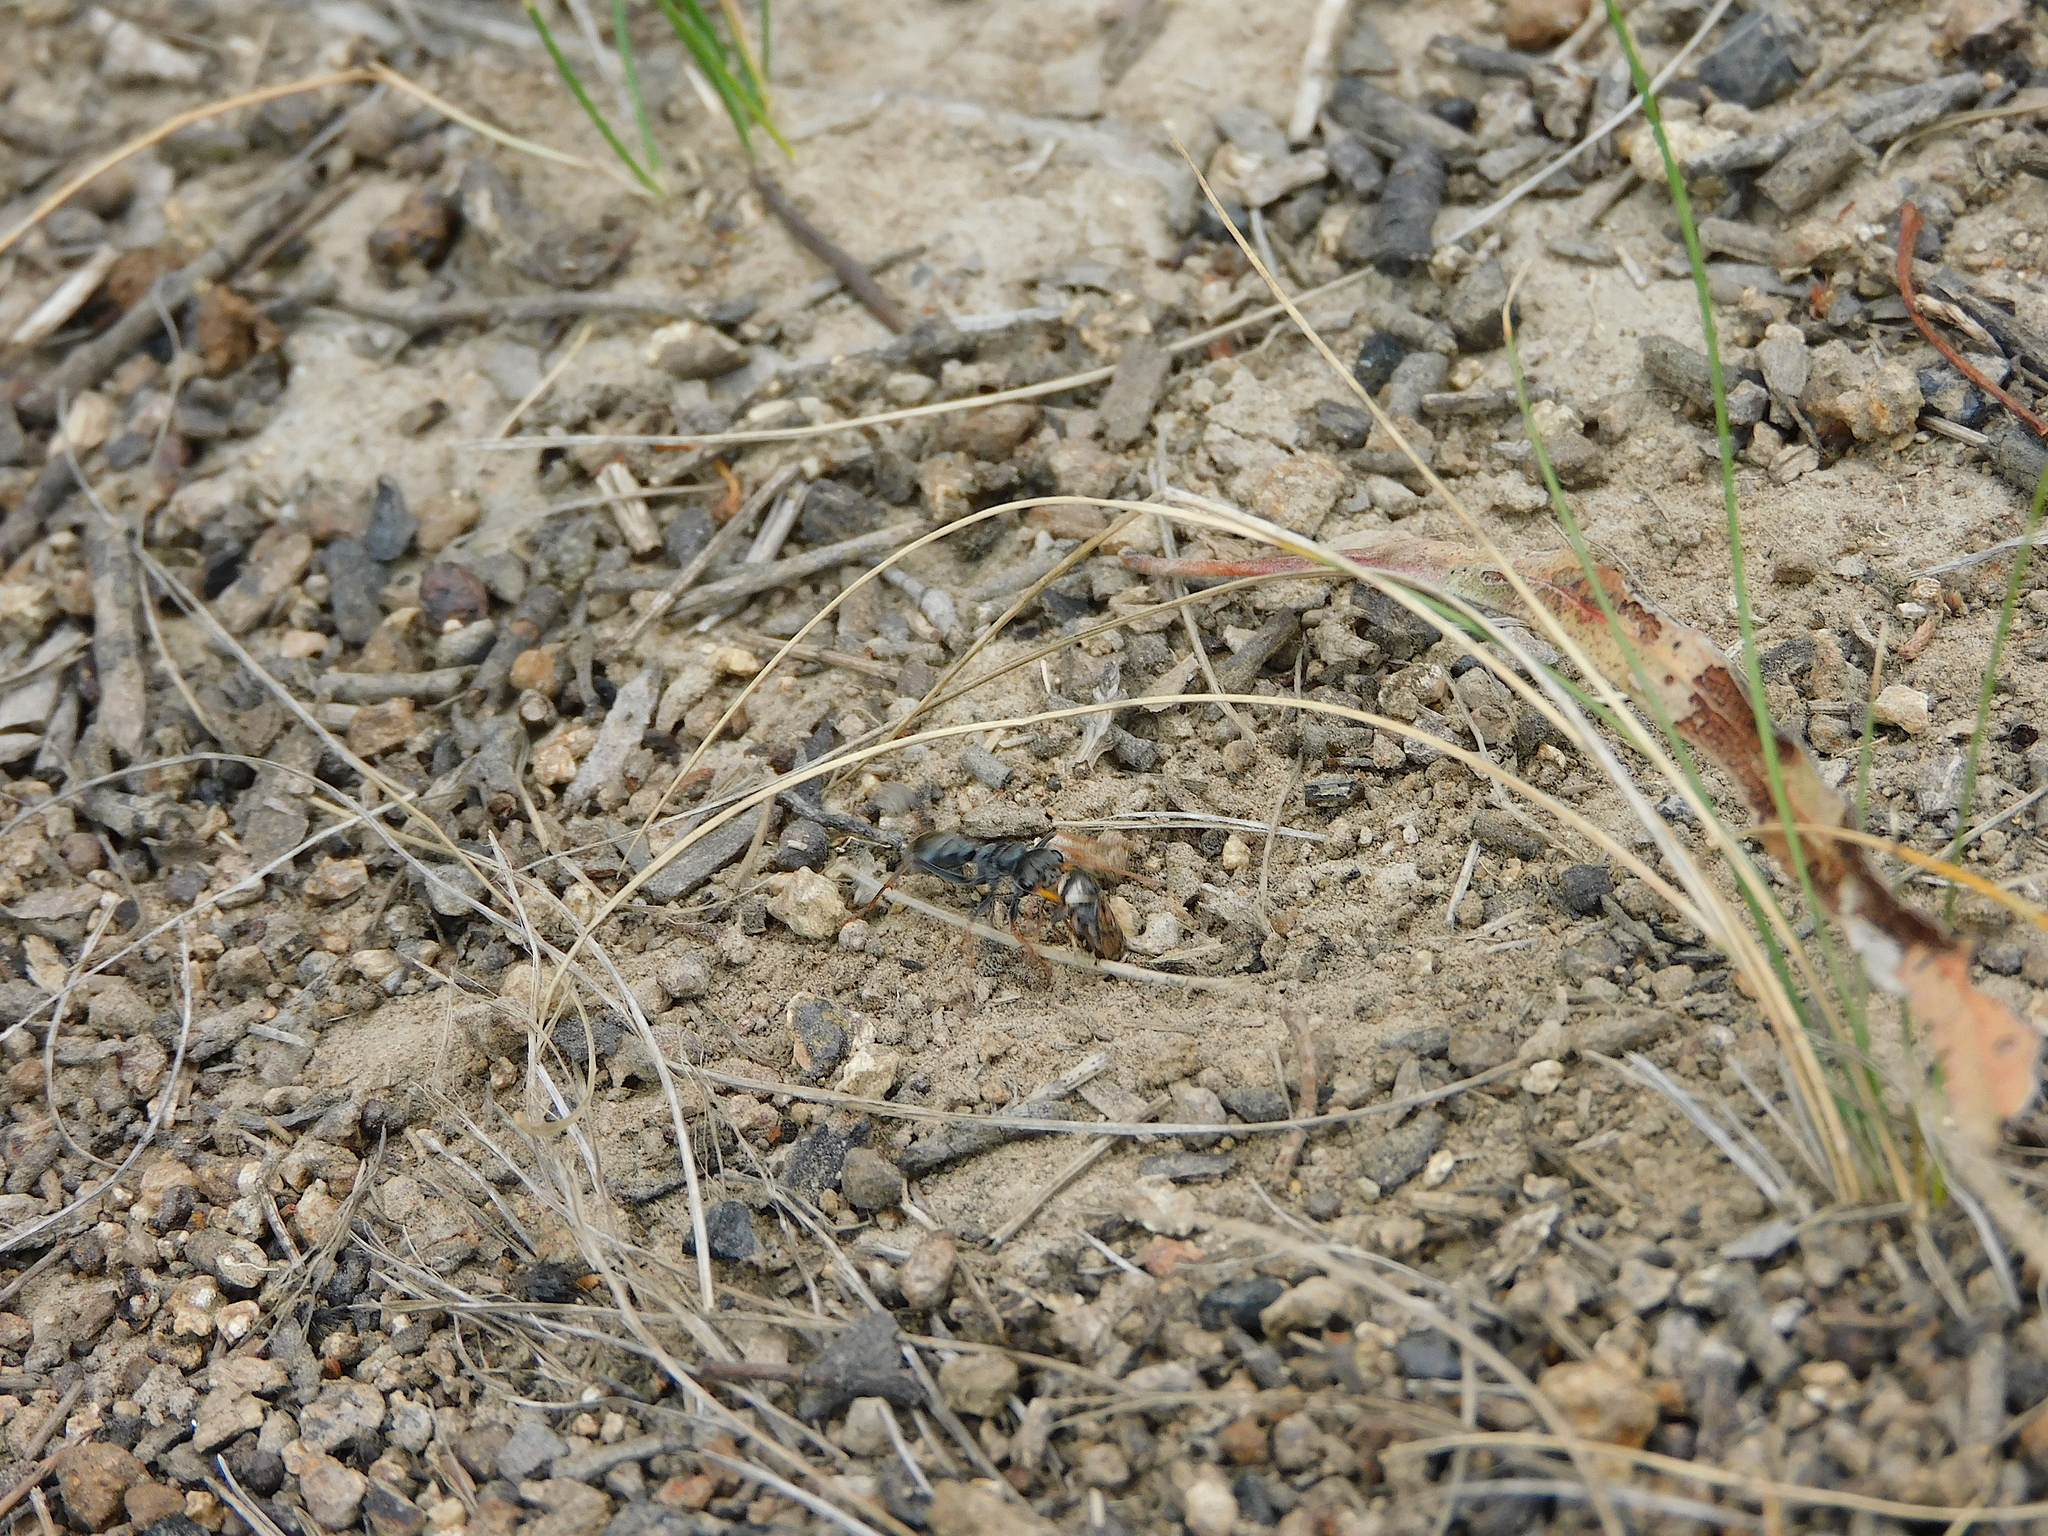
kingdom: Animalia
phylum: Arthropoda
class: Insecta
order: Hymenoptera
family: Formicidae
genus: Myrmecia
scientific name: Myrmecia pilosula
